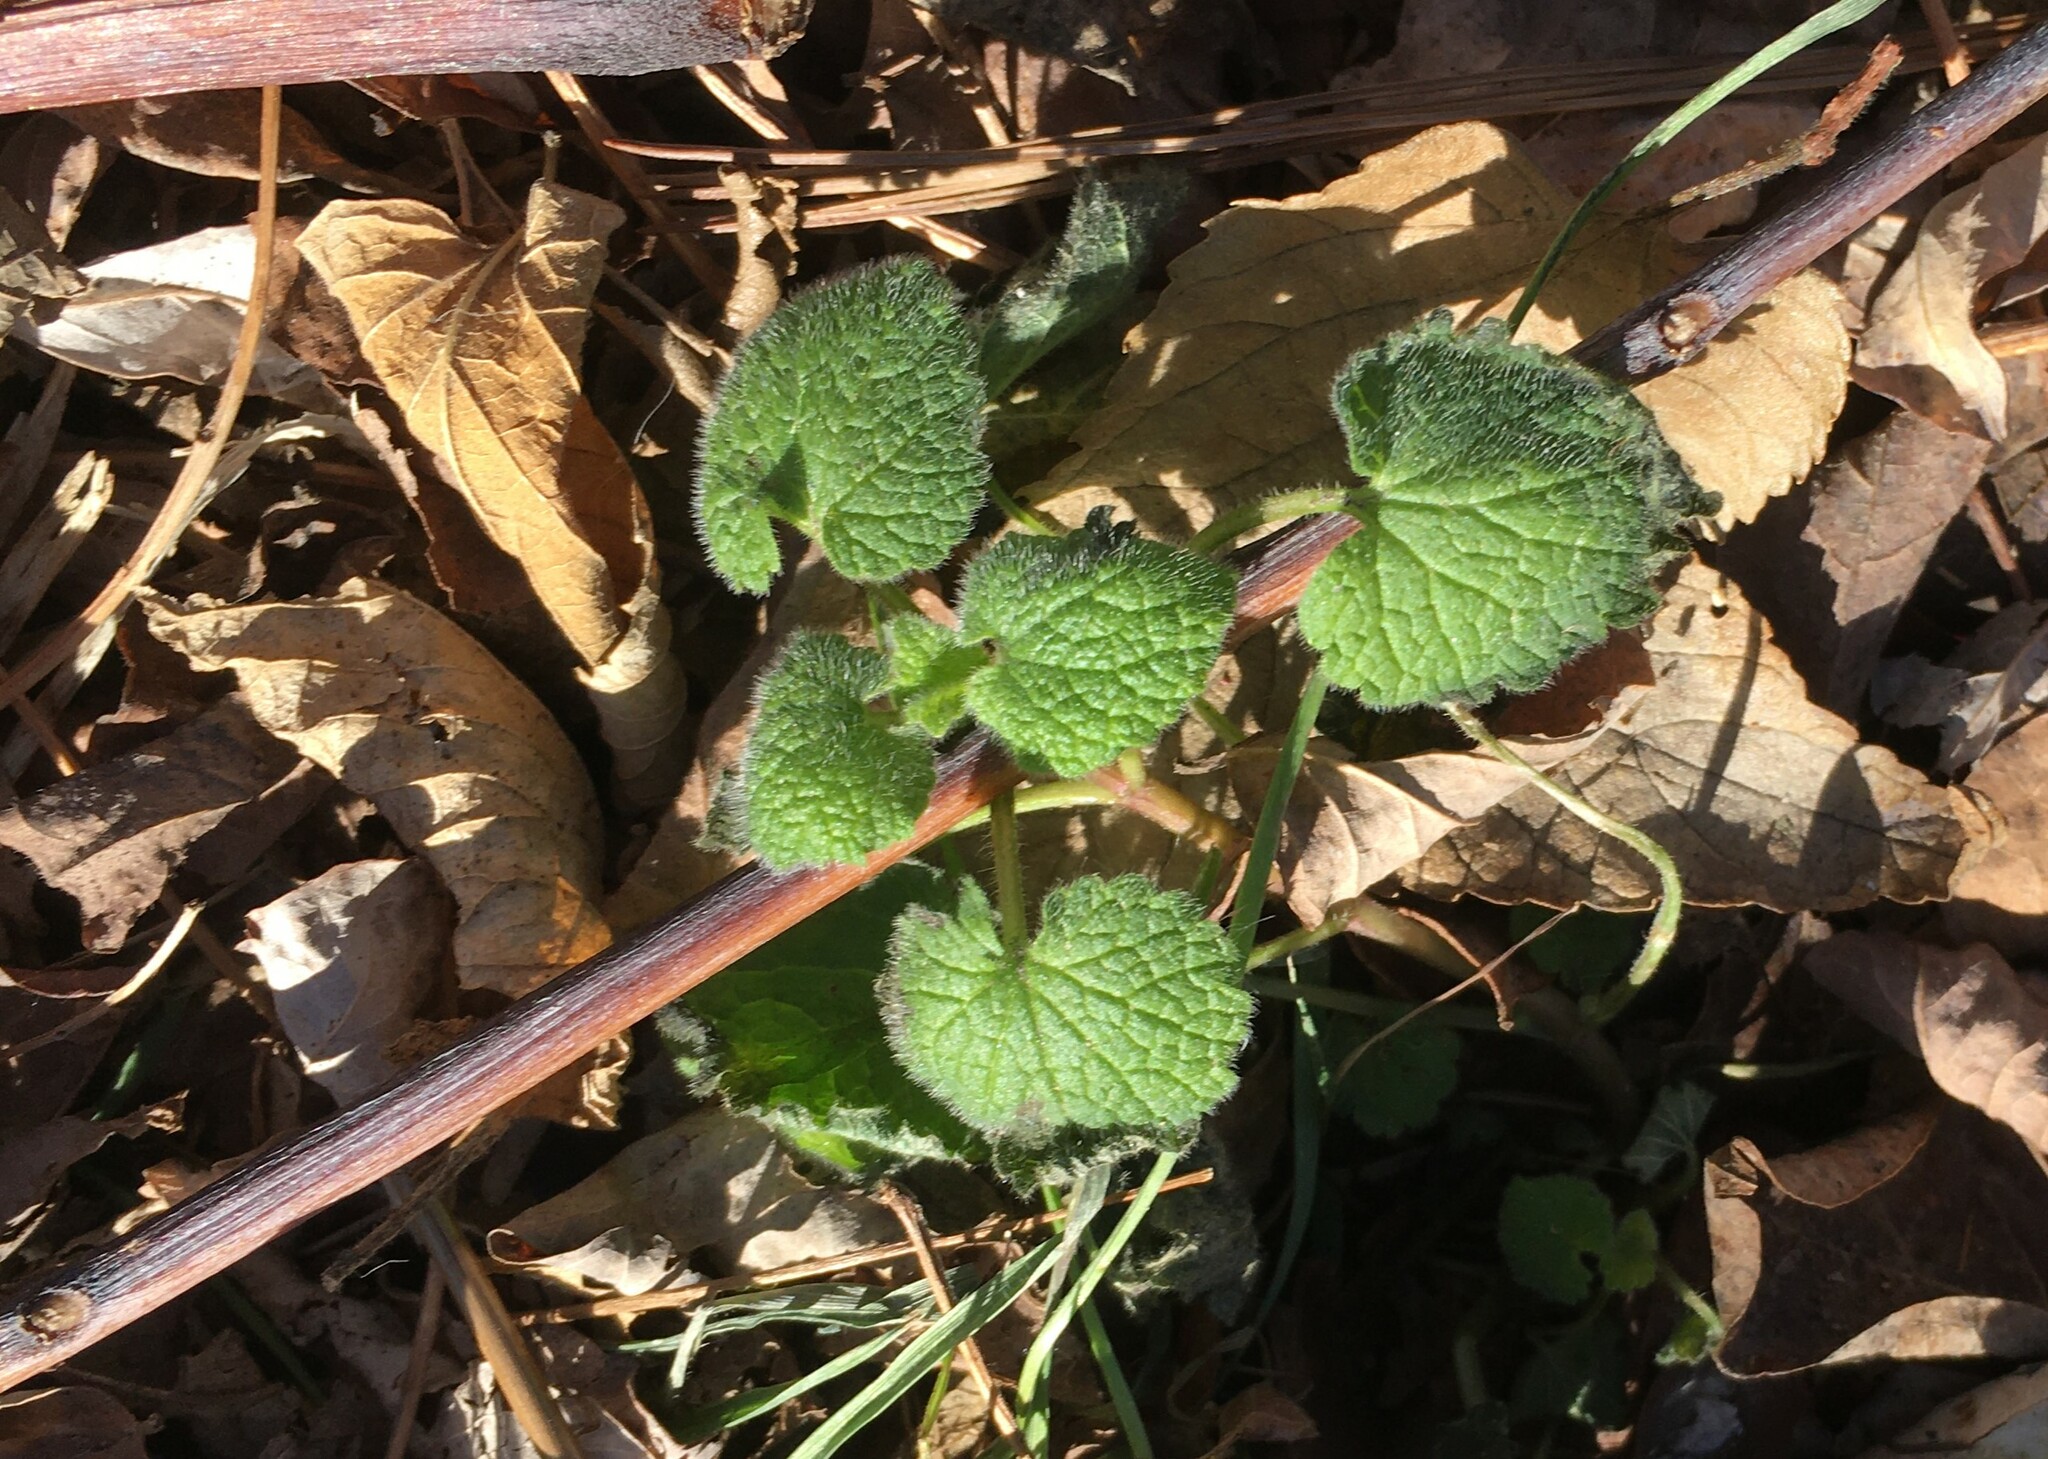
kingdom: Plantae
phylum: Tracheophyta
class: Magnoliopsida
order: Lamiales
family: Lamiaceae
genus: Lamium
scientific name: Lamium purpureum
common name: Red dead-nettle
